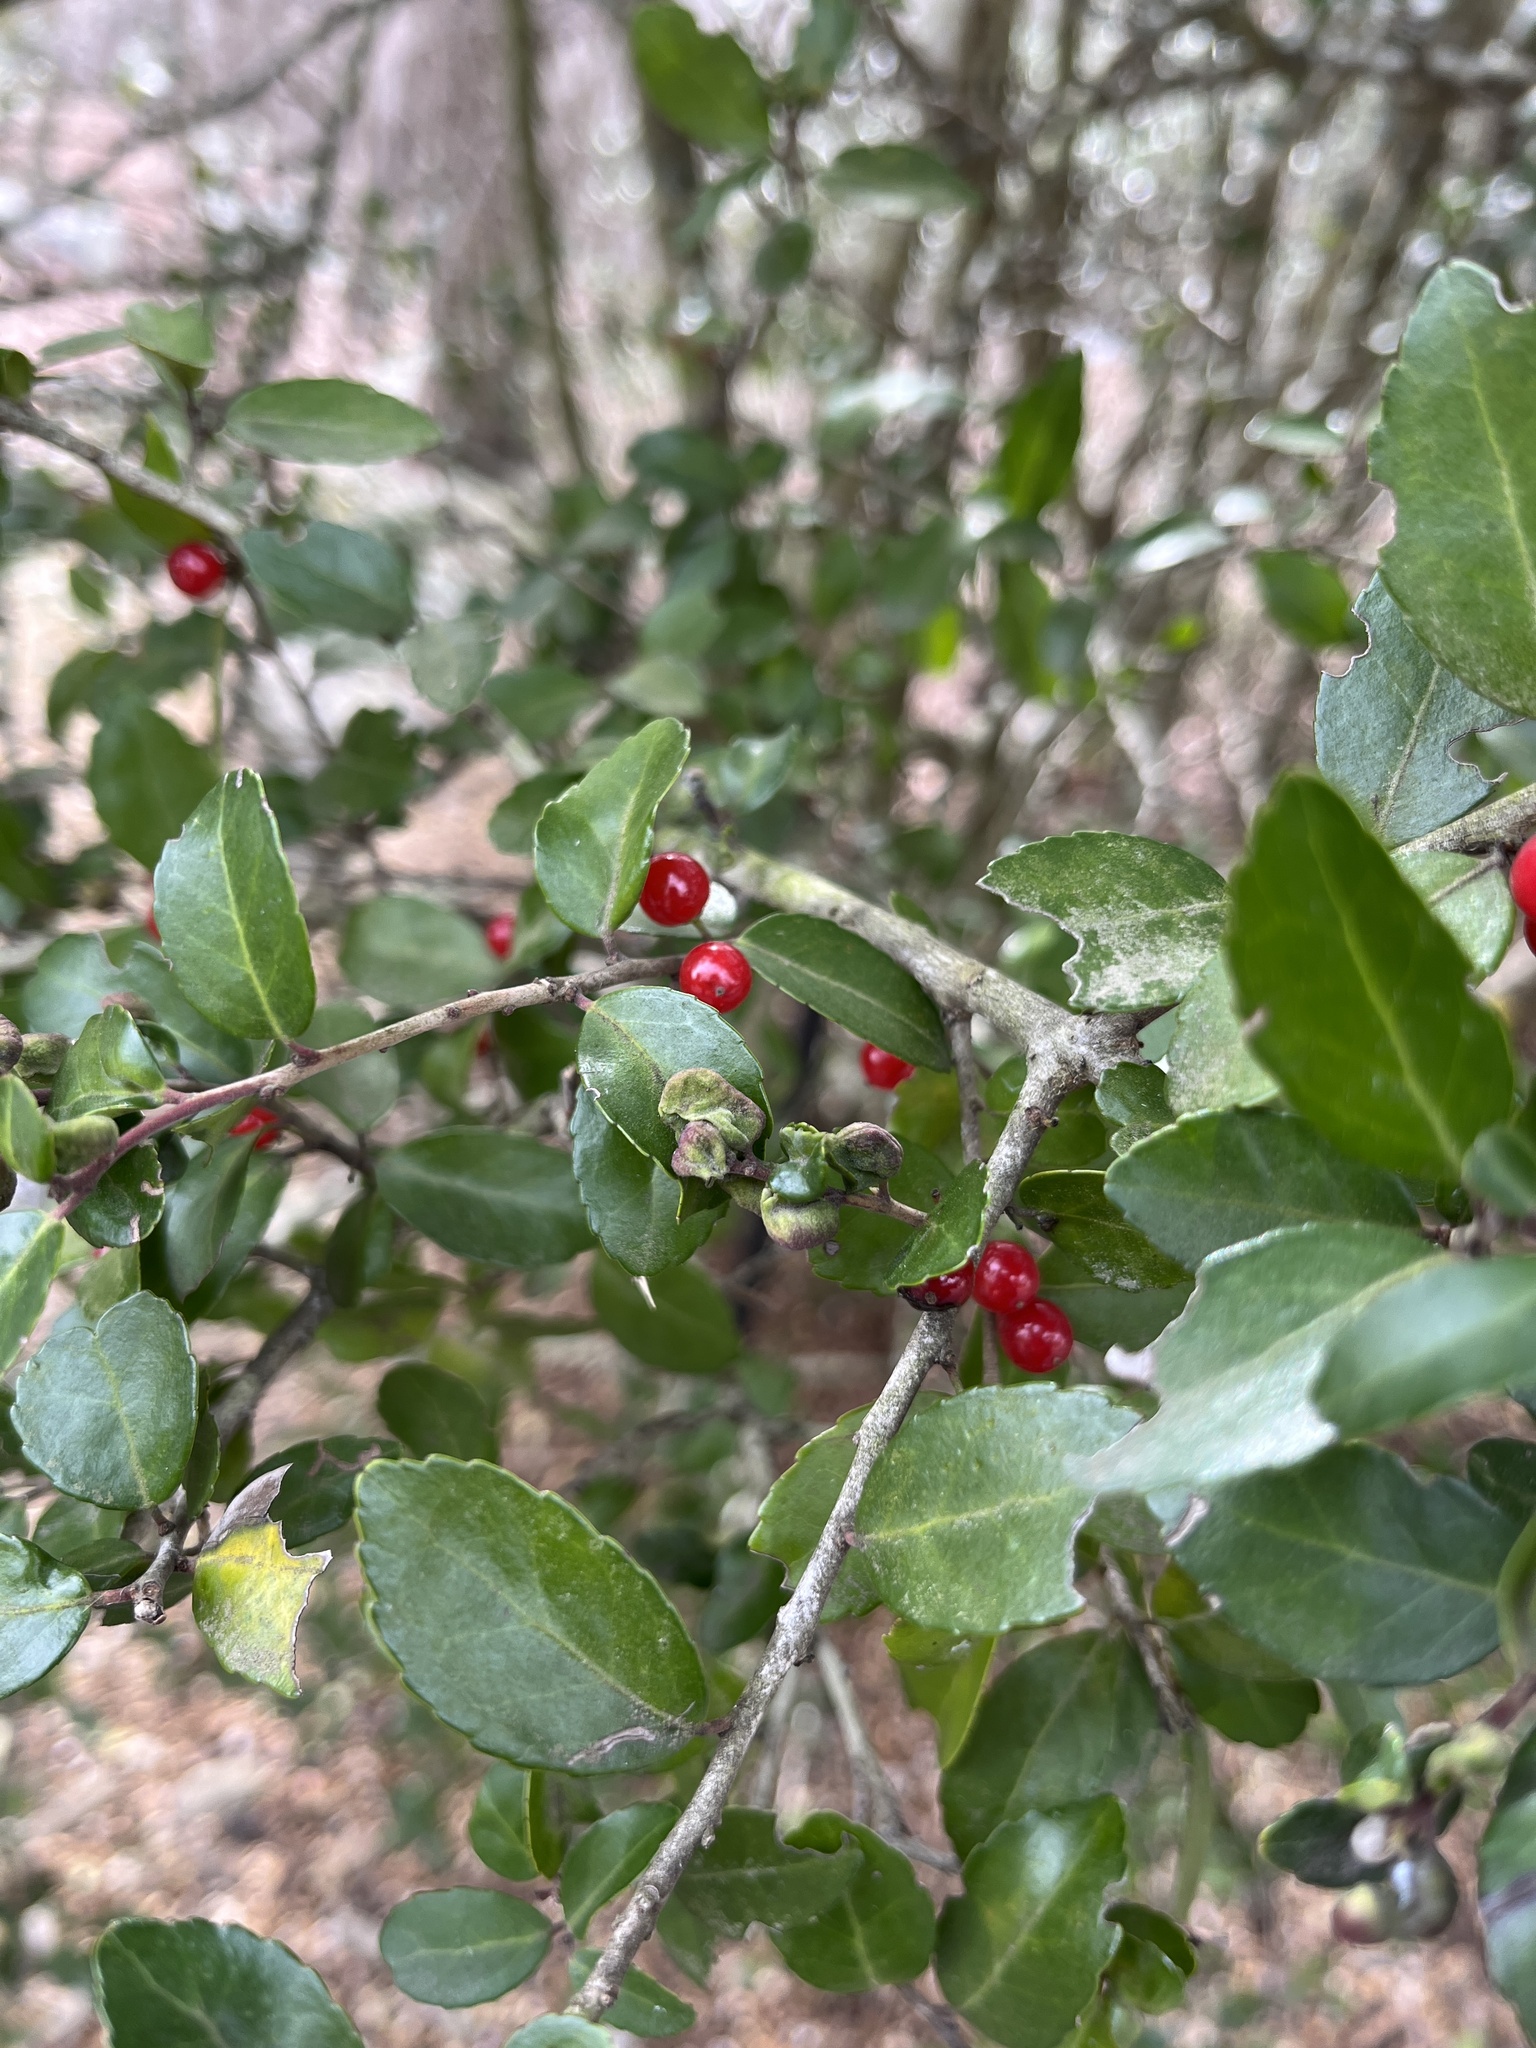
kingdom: Animalia
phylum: Arthropoda
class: Insecta
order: Hemiptera
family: Aphalaridae
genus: Gyropsylla
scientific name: Gyropsylla ilecis
